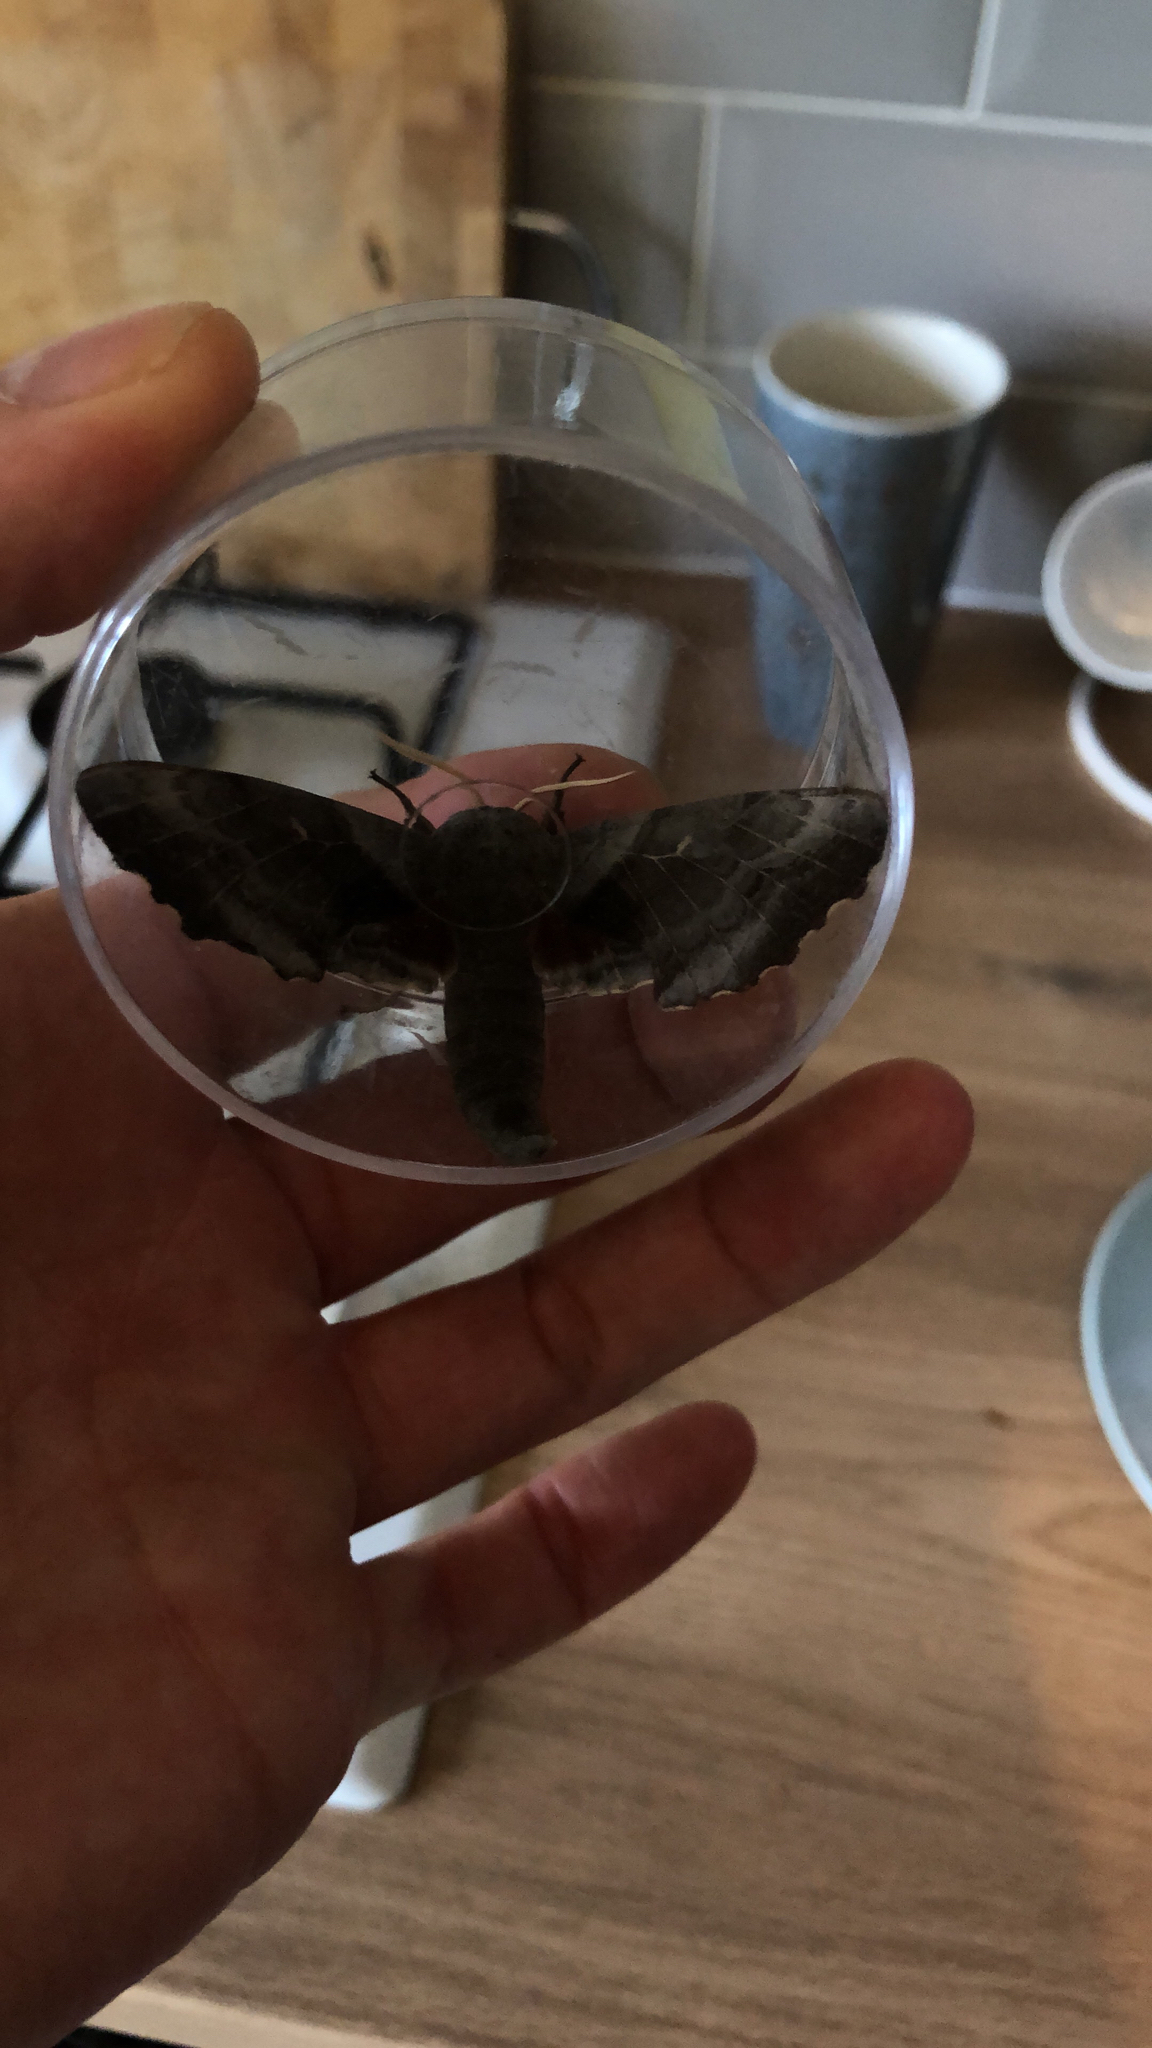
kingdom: Animalia
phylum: Arthropoda
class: Insecta
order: Lepidoptera
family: Sphingidae
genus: Laothoe
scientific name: Laothoe populi
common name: Poplar hawk-moth
